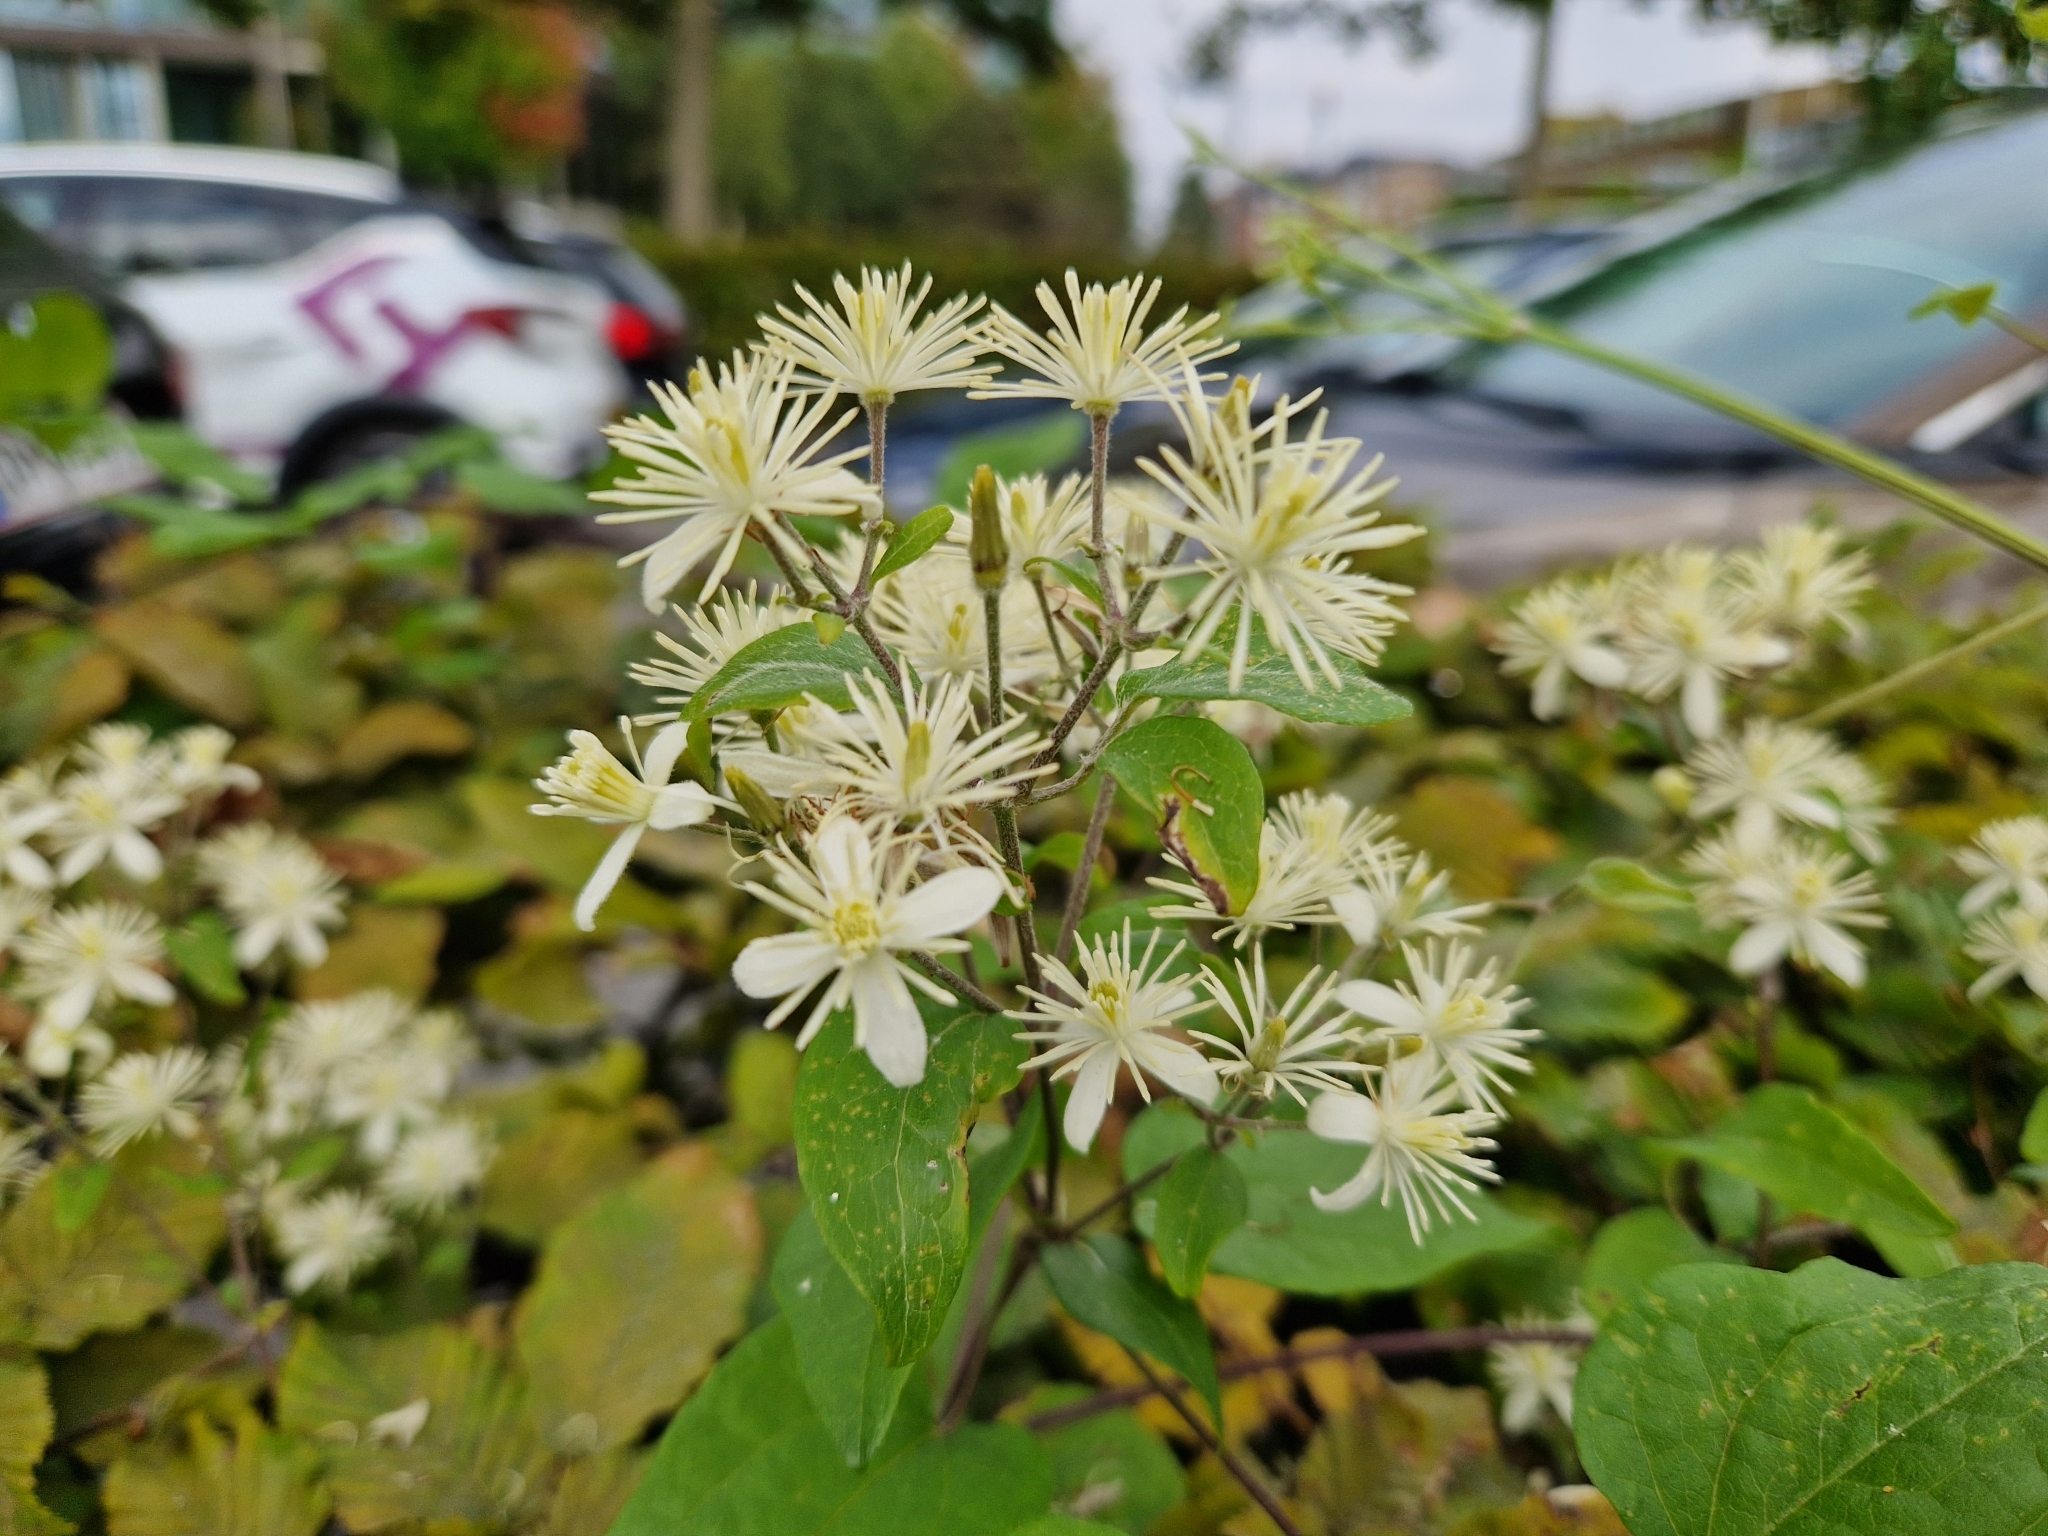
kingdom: Plantae
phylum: Tracheophyta
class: Magnoliopsida
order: Ranunculales
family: Ranunculaceae
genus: Clematis
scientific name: Clematis vitalba
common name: Evergreen clematis
